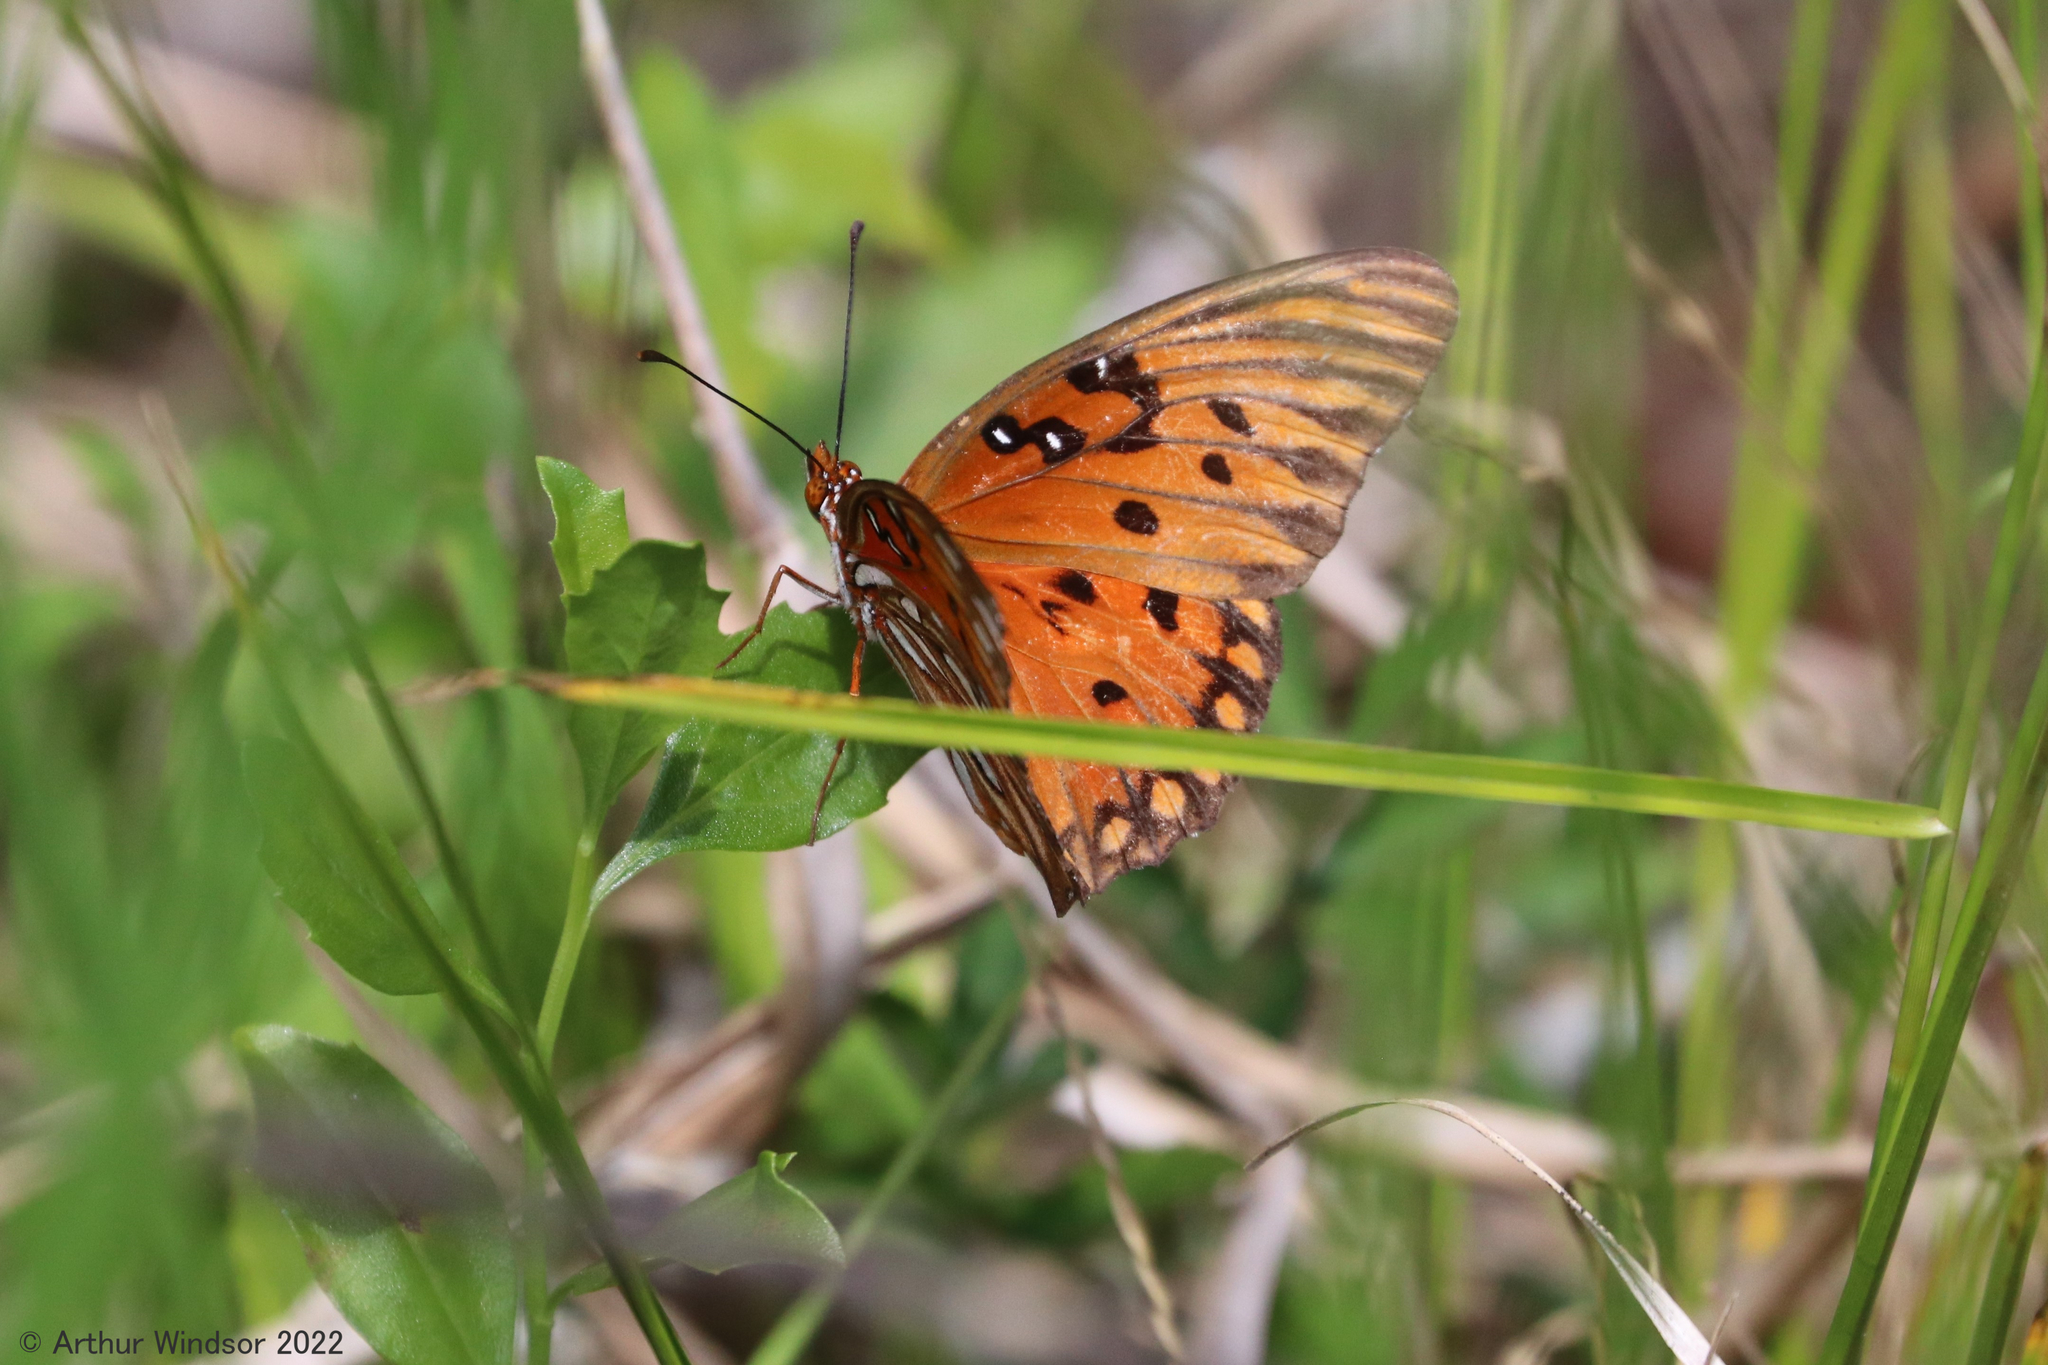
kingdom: Animalia
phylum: Arthropoda
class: Insecta
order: Lepidoptera
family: Nymphalidae
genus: Dione
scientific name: Dione vanillae
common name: Gulf fritillary
